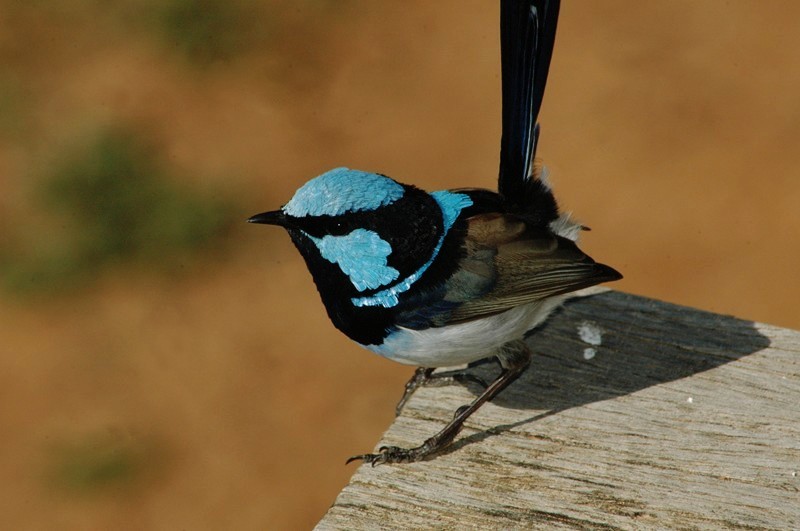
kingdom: Animalia
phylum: Chordata
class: Aves
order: Passeriformes
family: Maluridae
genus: Malurus
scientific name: Malurus cyaneus
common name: Superb fairywren
